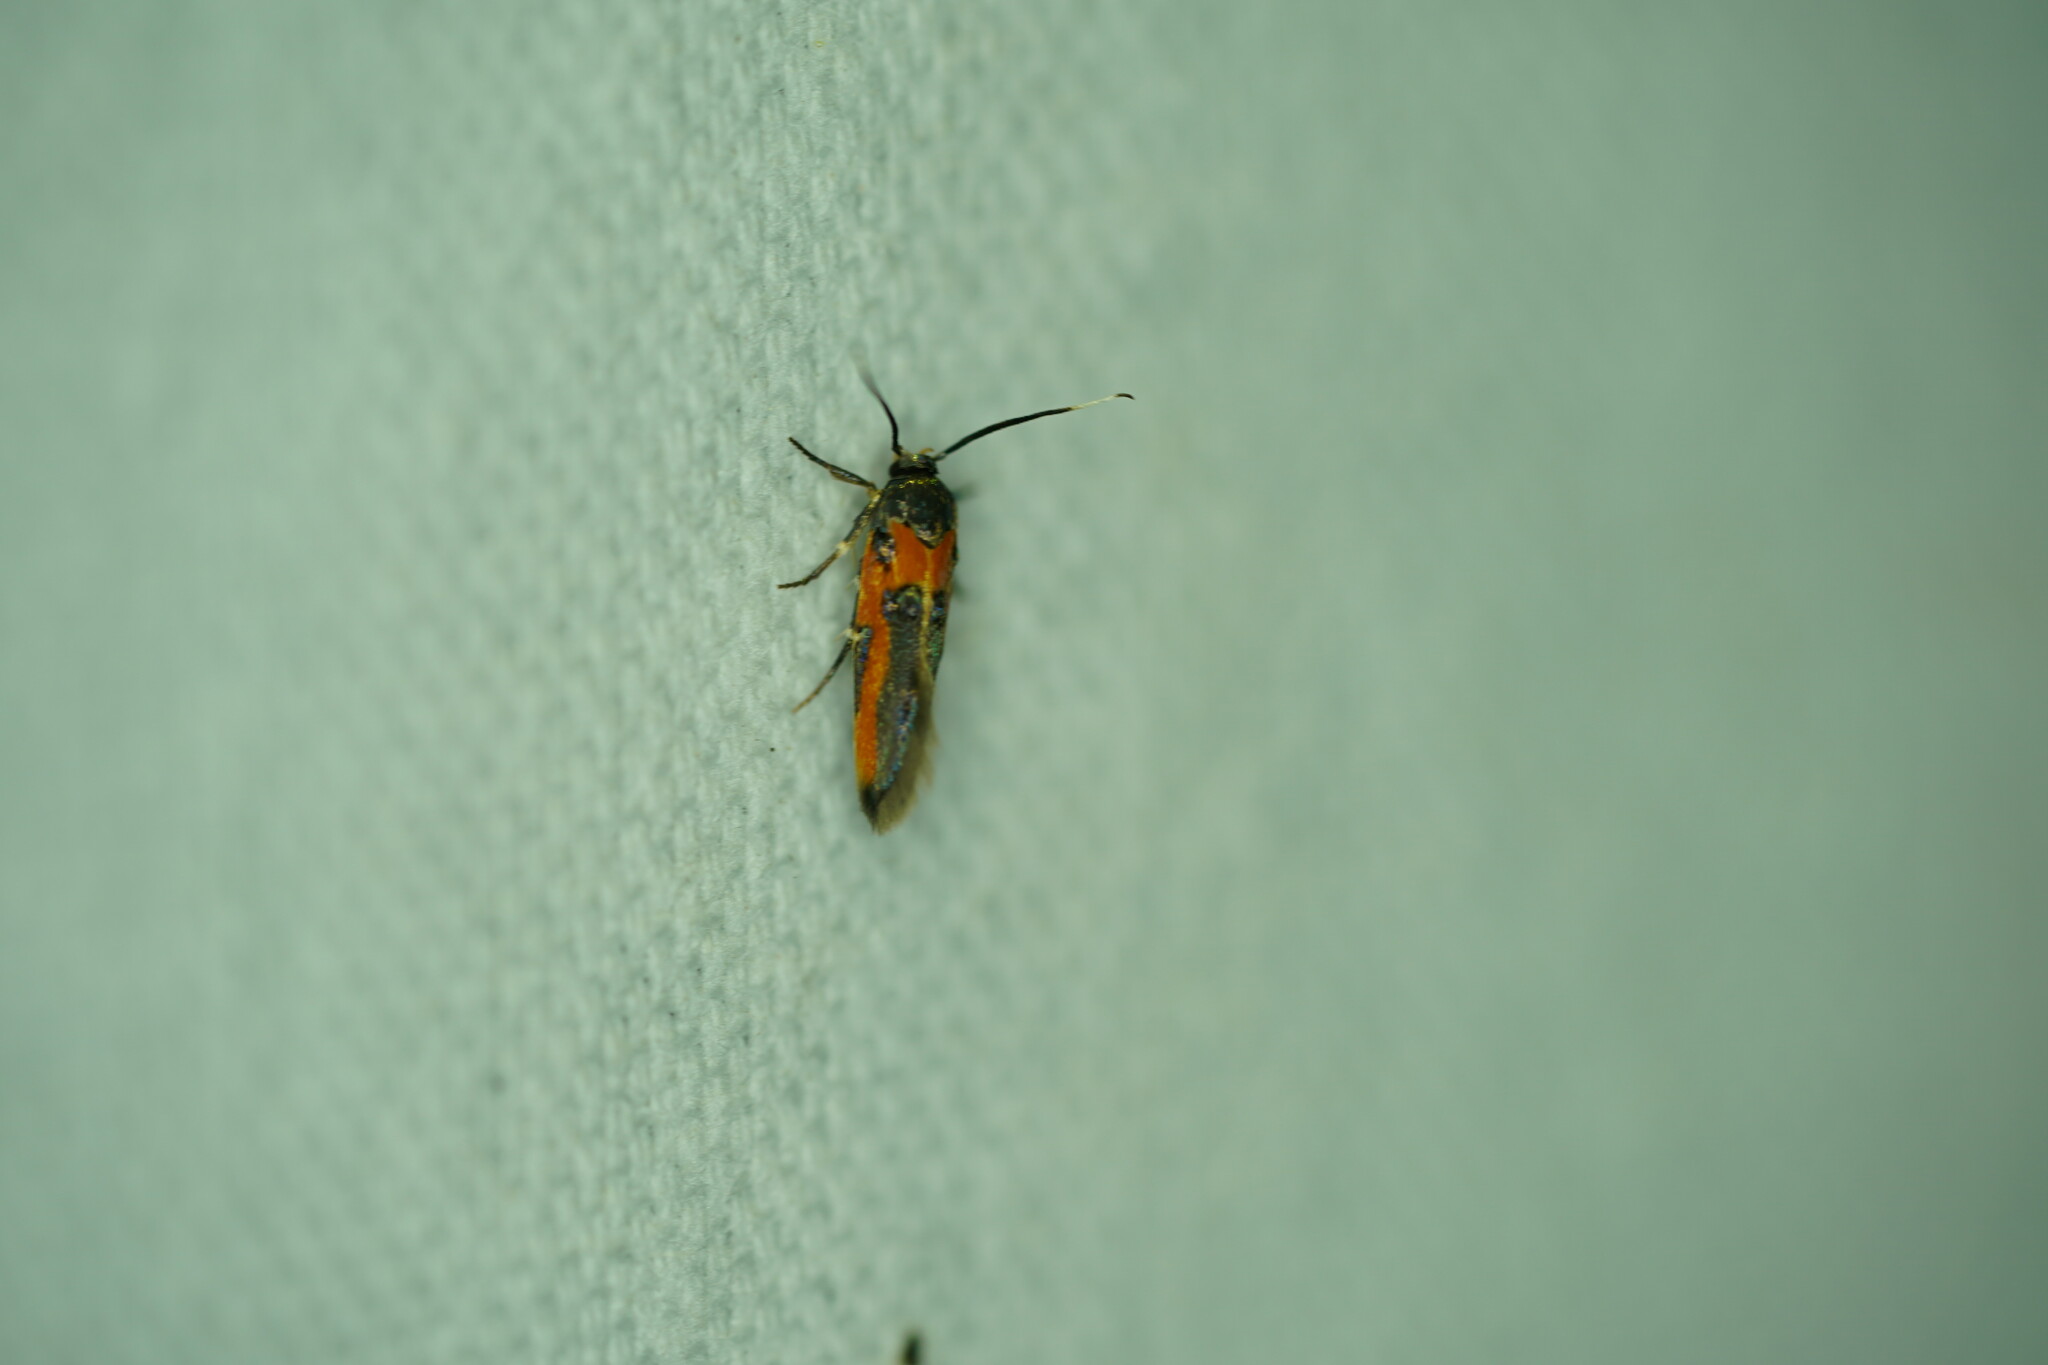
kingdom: Animalia
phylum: Arthropoda
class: Insecta
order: Lepidoptera
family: Cosmopterigidae
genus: Euclemensia
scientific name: Euclemensia bassettella
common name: Kermes scale moth
